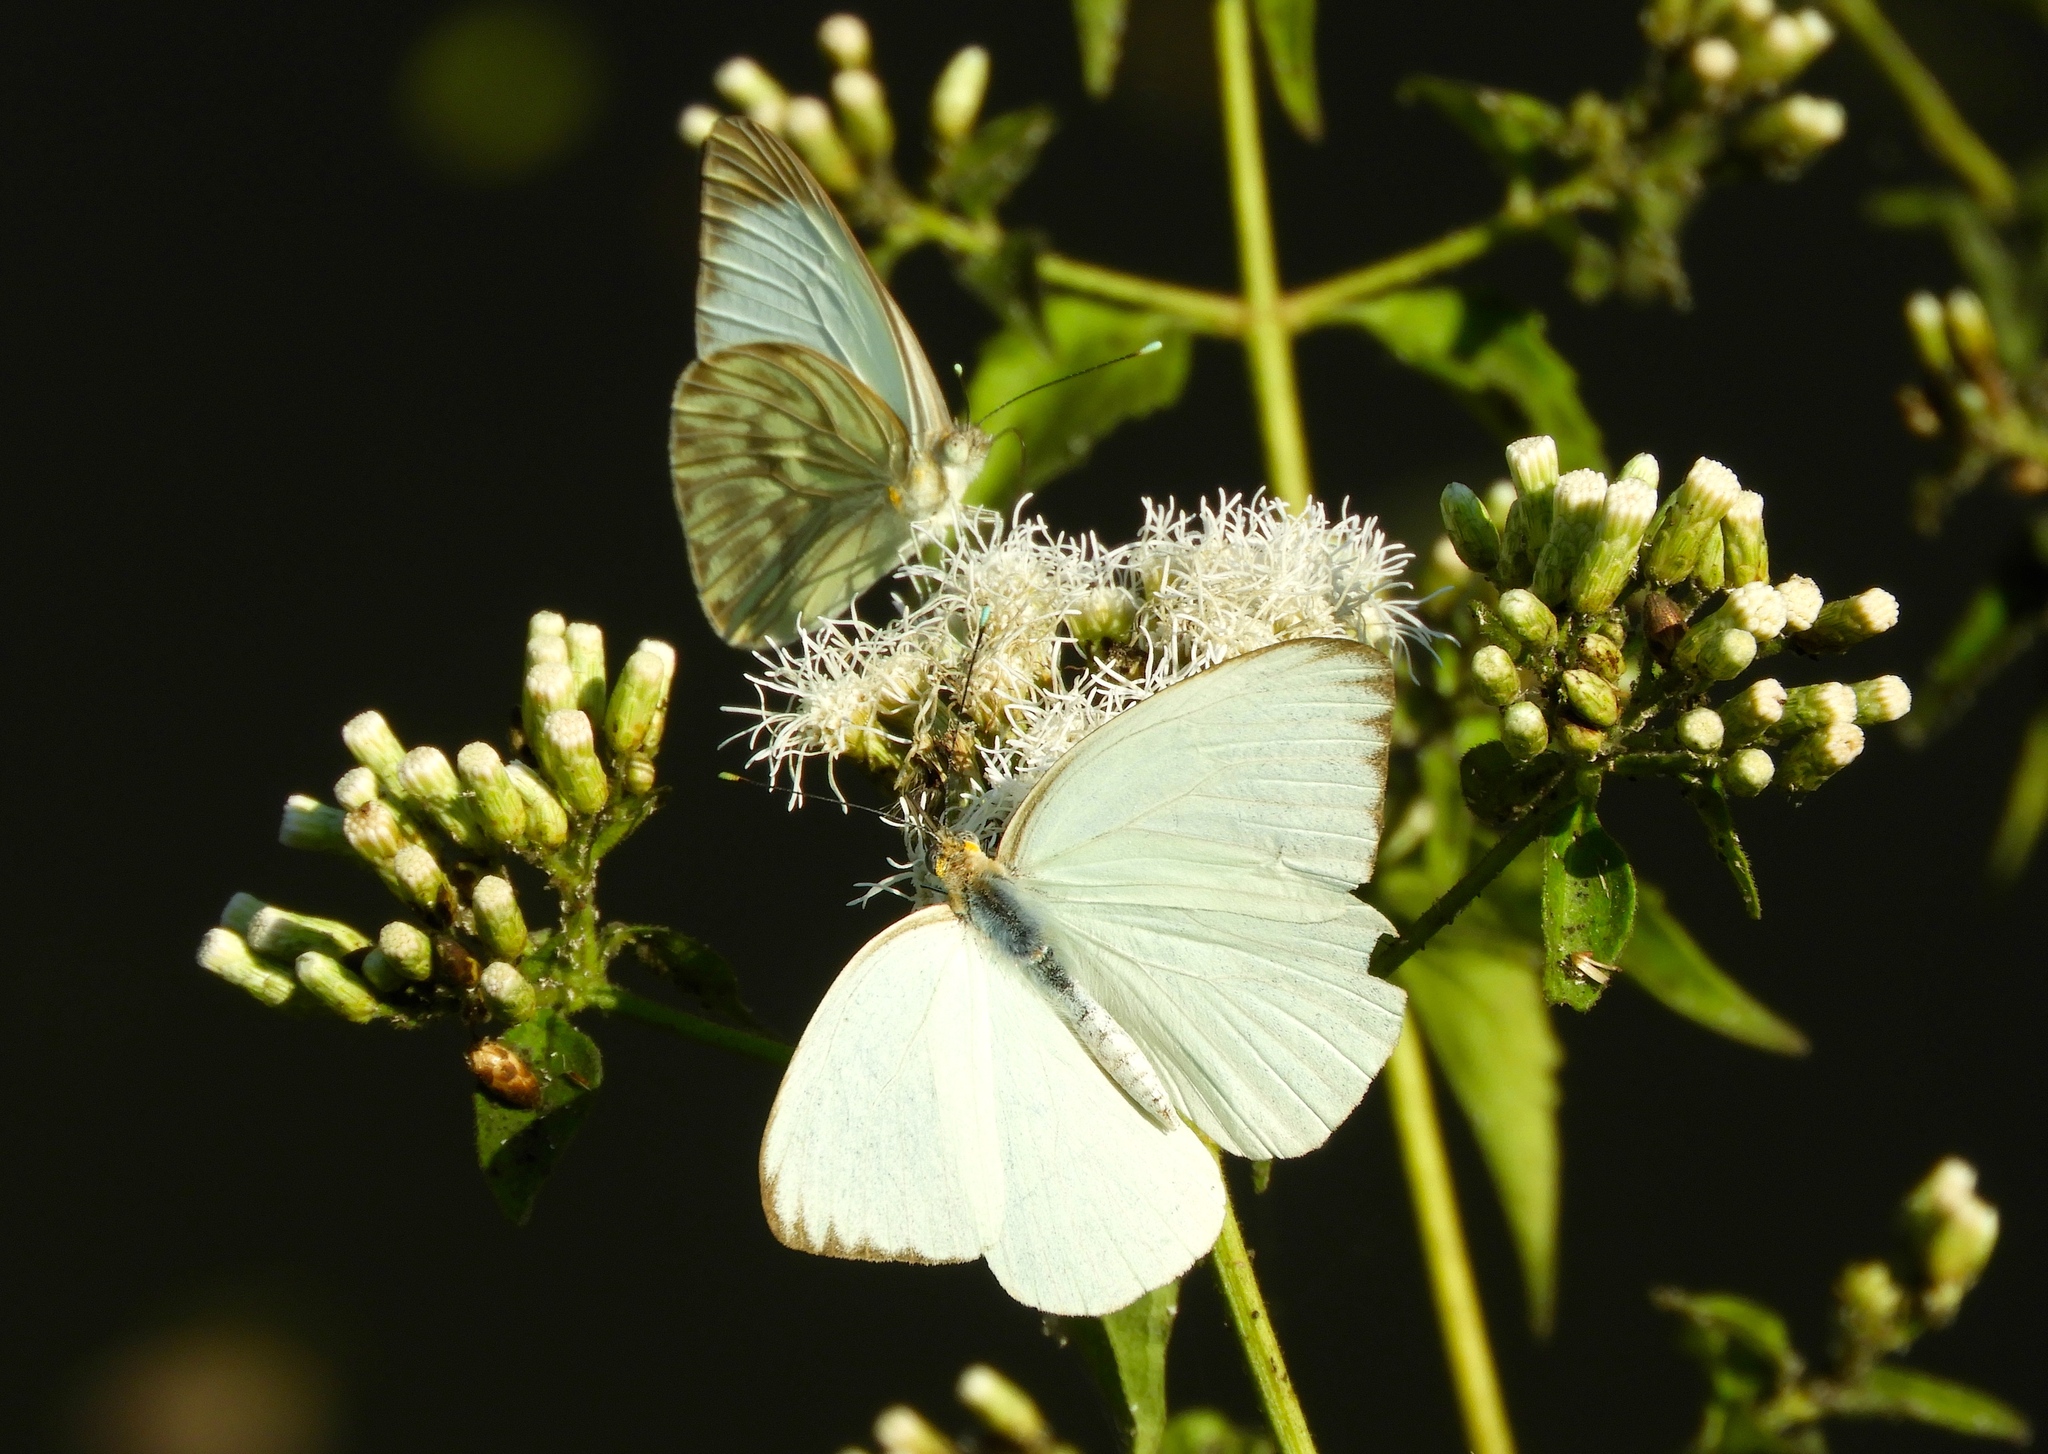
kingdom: Animalia
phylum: Arthropoda
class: Insecta
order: Lepidoptera
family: Pieridae
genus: Ascia
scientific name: Ascia monuste
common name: Great southern white
